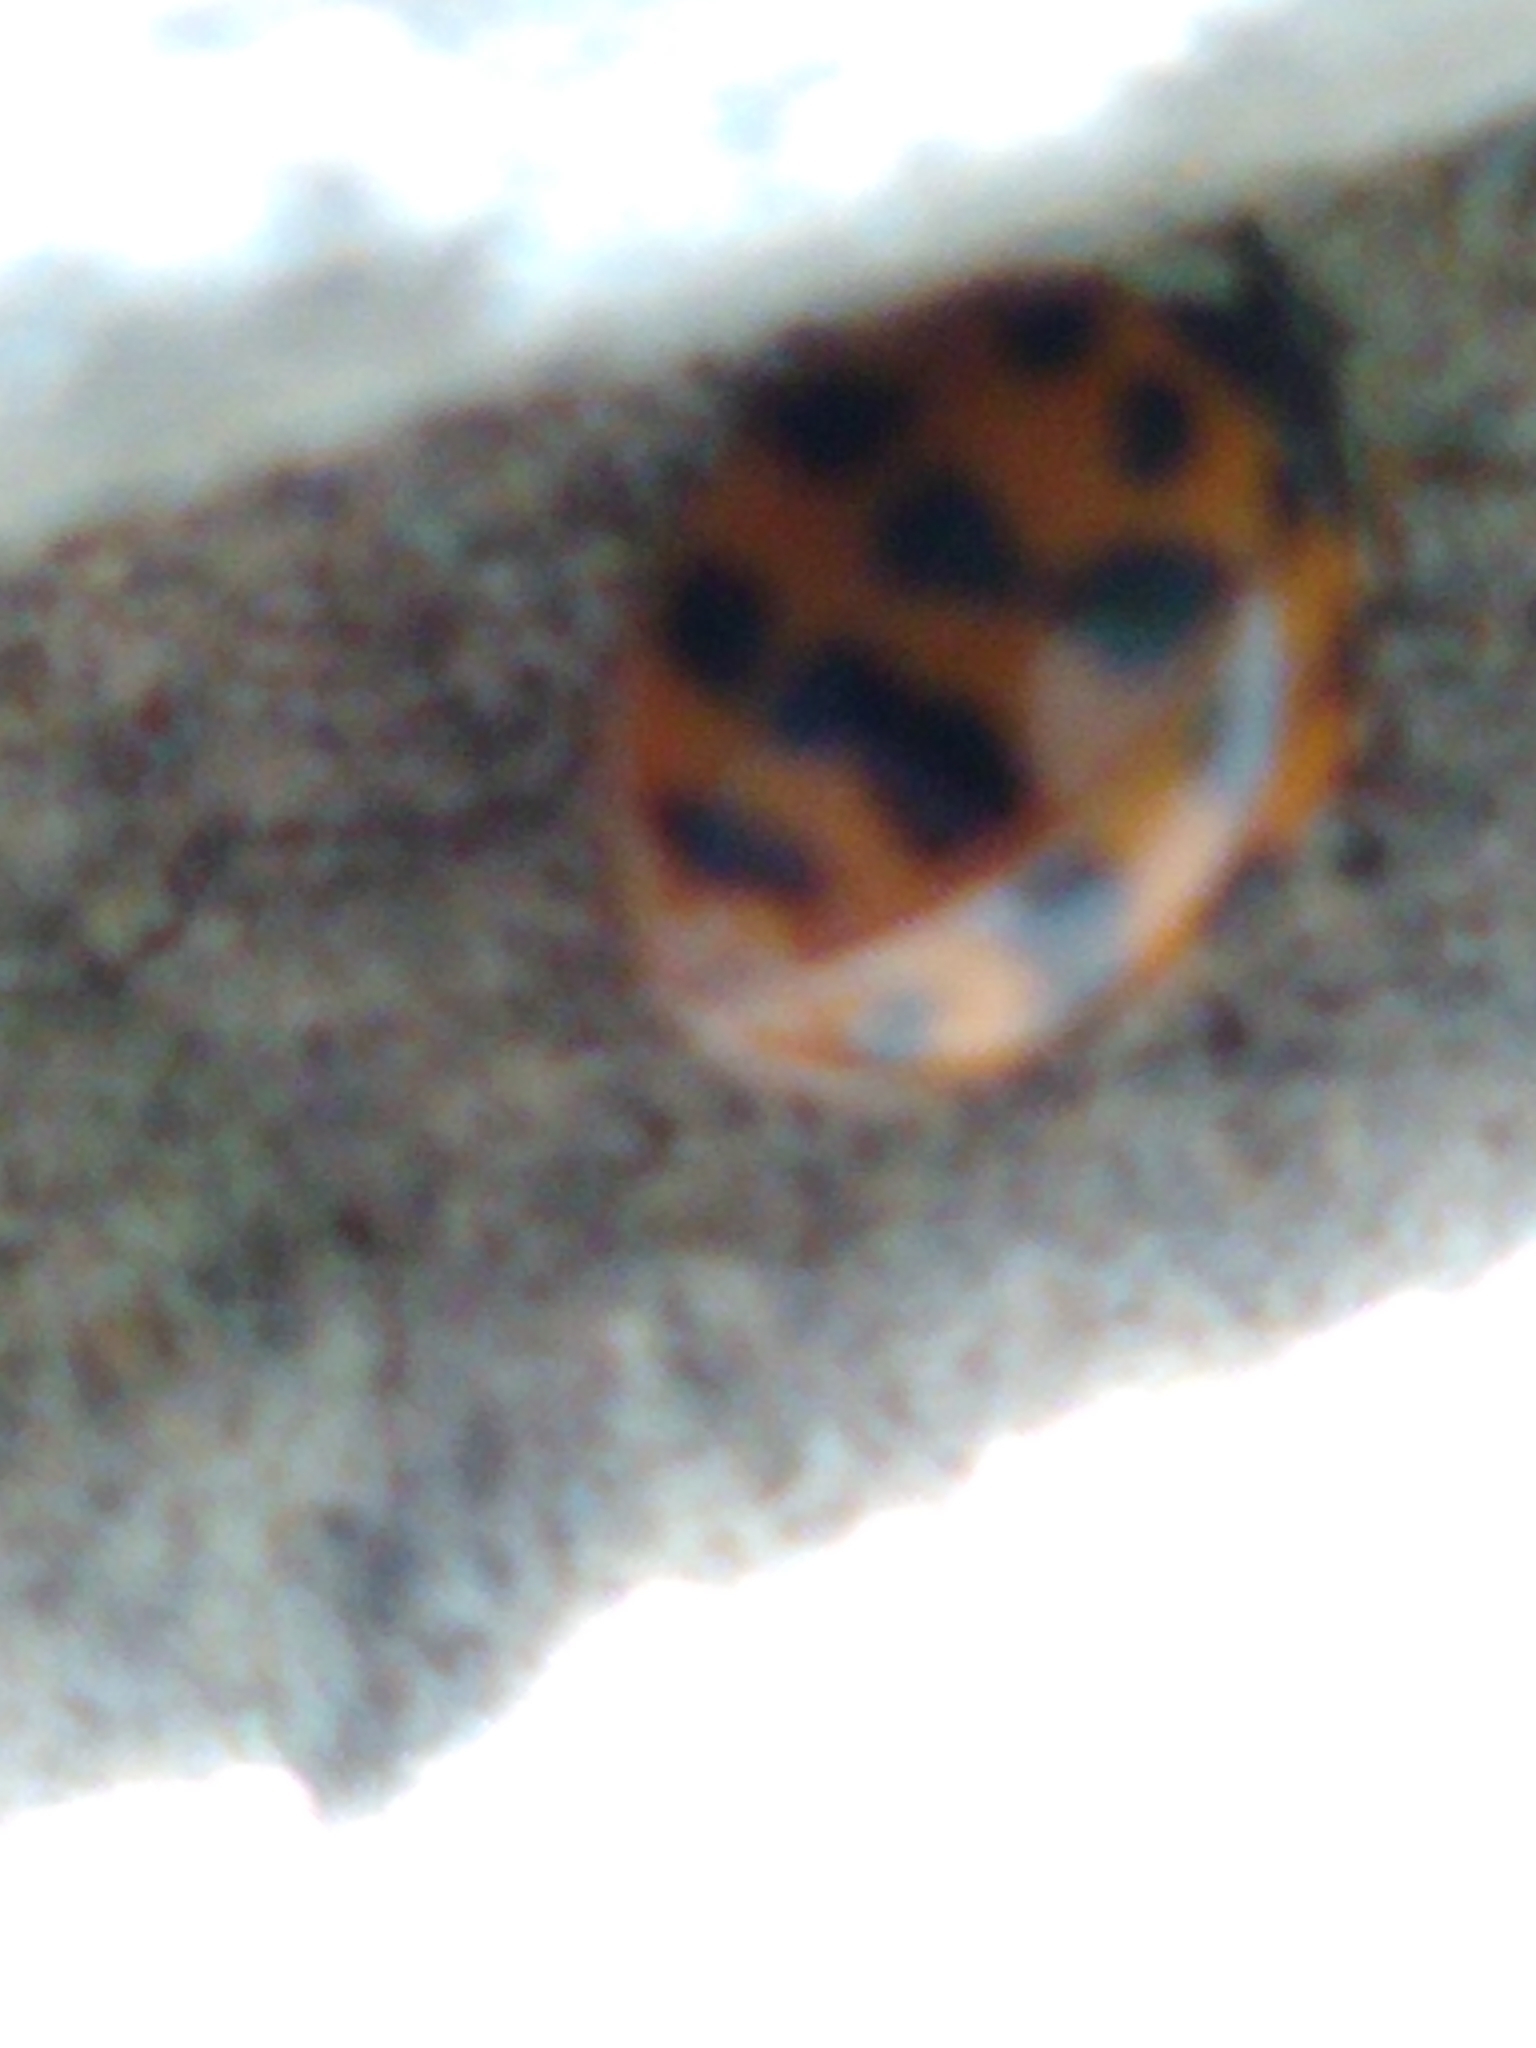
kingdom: Animalia
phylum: Arthropoda
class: Insecta
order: Coleoptera
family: Coccinellidae
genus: Harmonia
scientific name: Harmonia axyridis
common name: Harlequin ladybird
